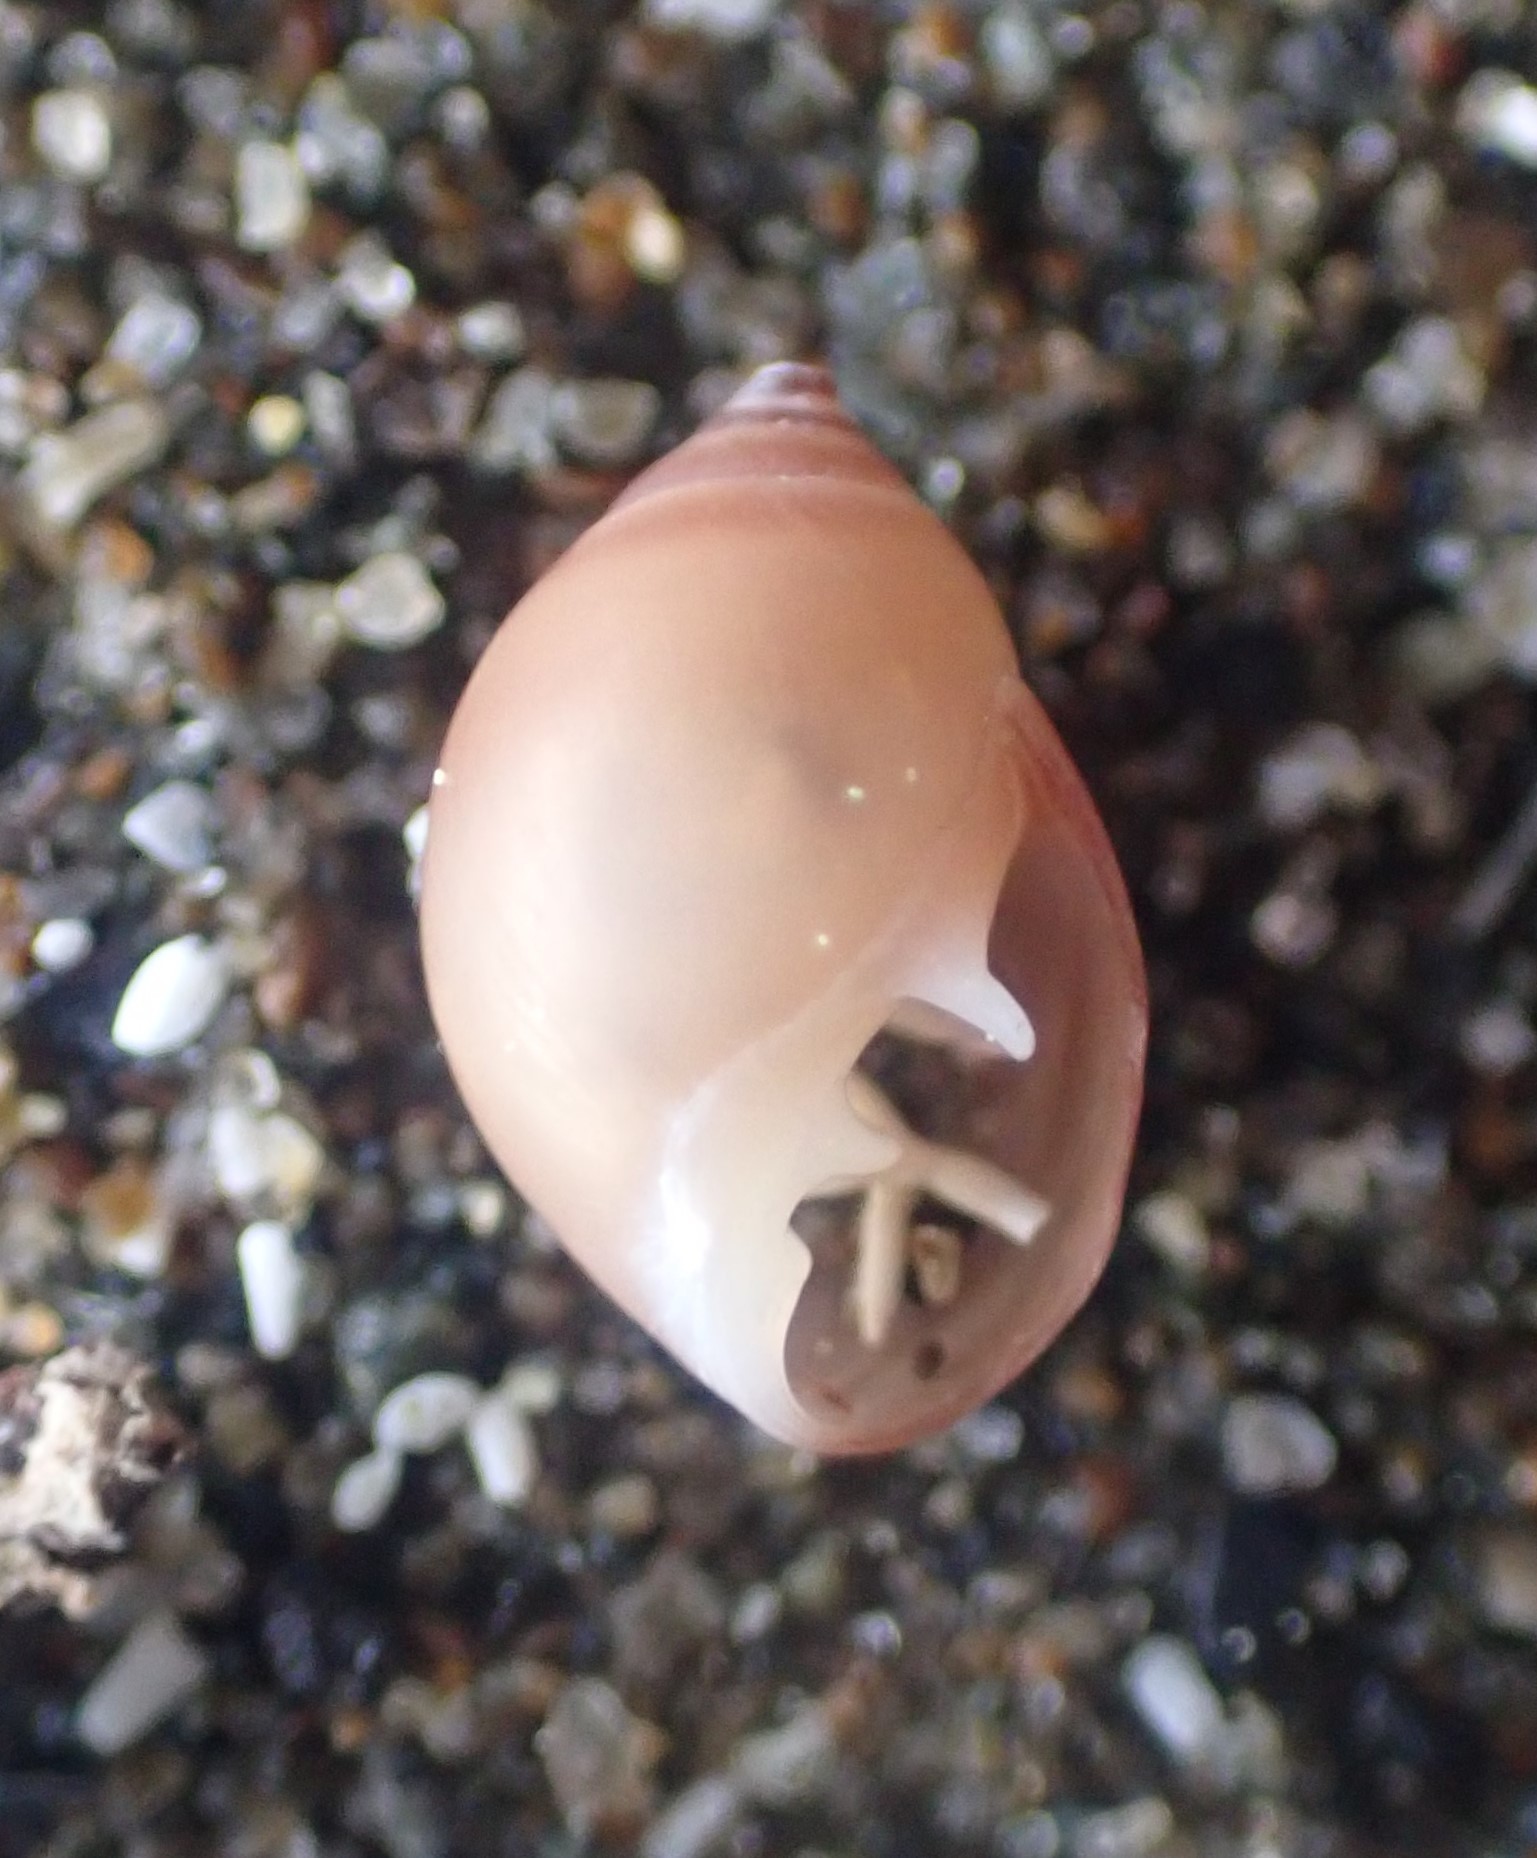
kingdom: Animalia
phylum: Mollusca
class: Gastropoda
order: Ellobiida
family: Ellobiidae
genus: Marinula
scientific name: Marinula filholi
